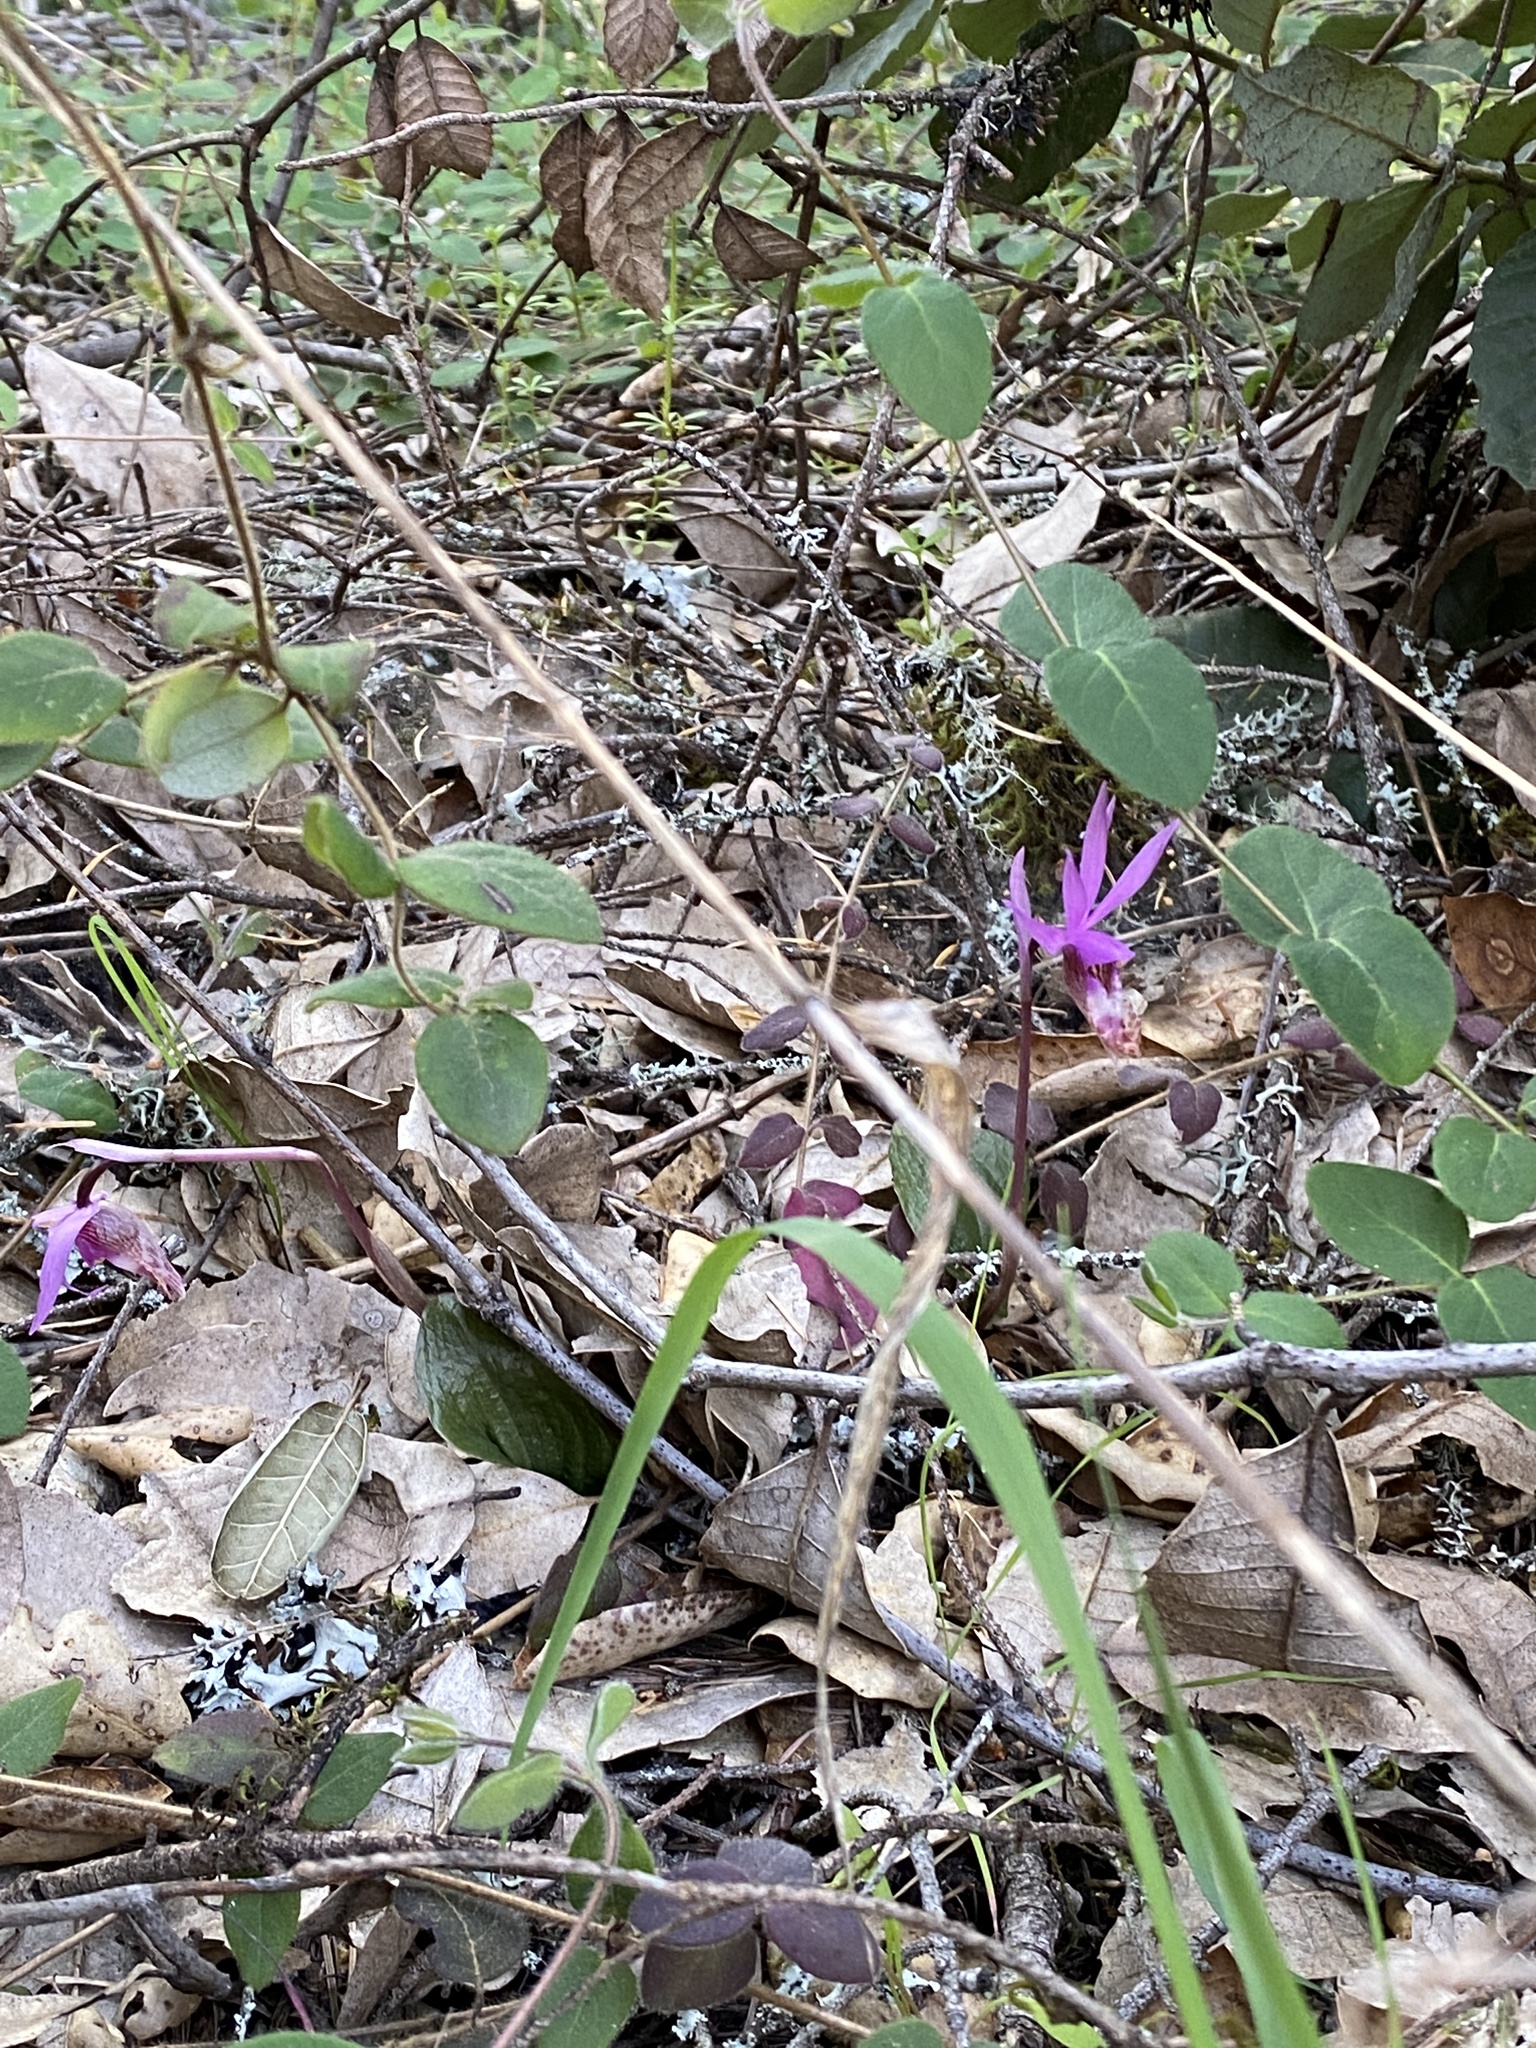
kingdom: Plantae
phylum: Tracheophyta
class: Liliopsida
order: Asparagales
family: Orchidaceae
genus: Calypso
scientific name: Calypso bulbosa
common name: Calypso
